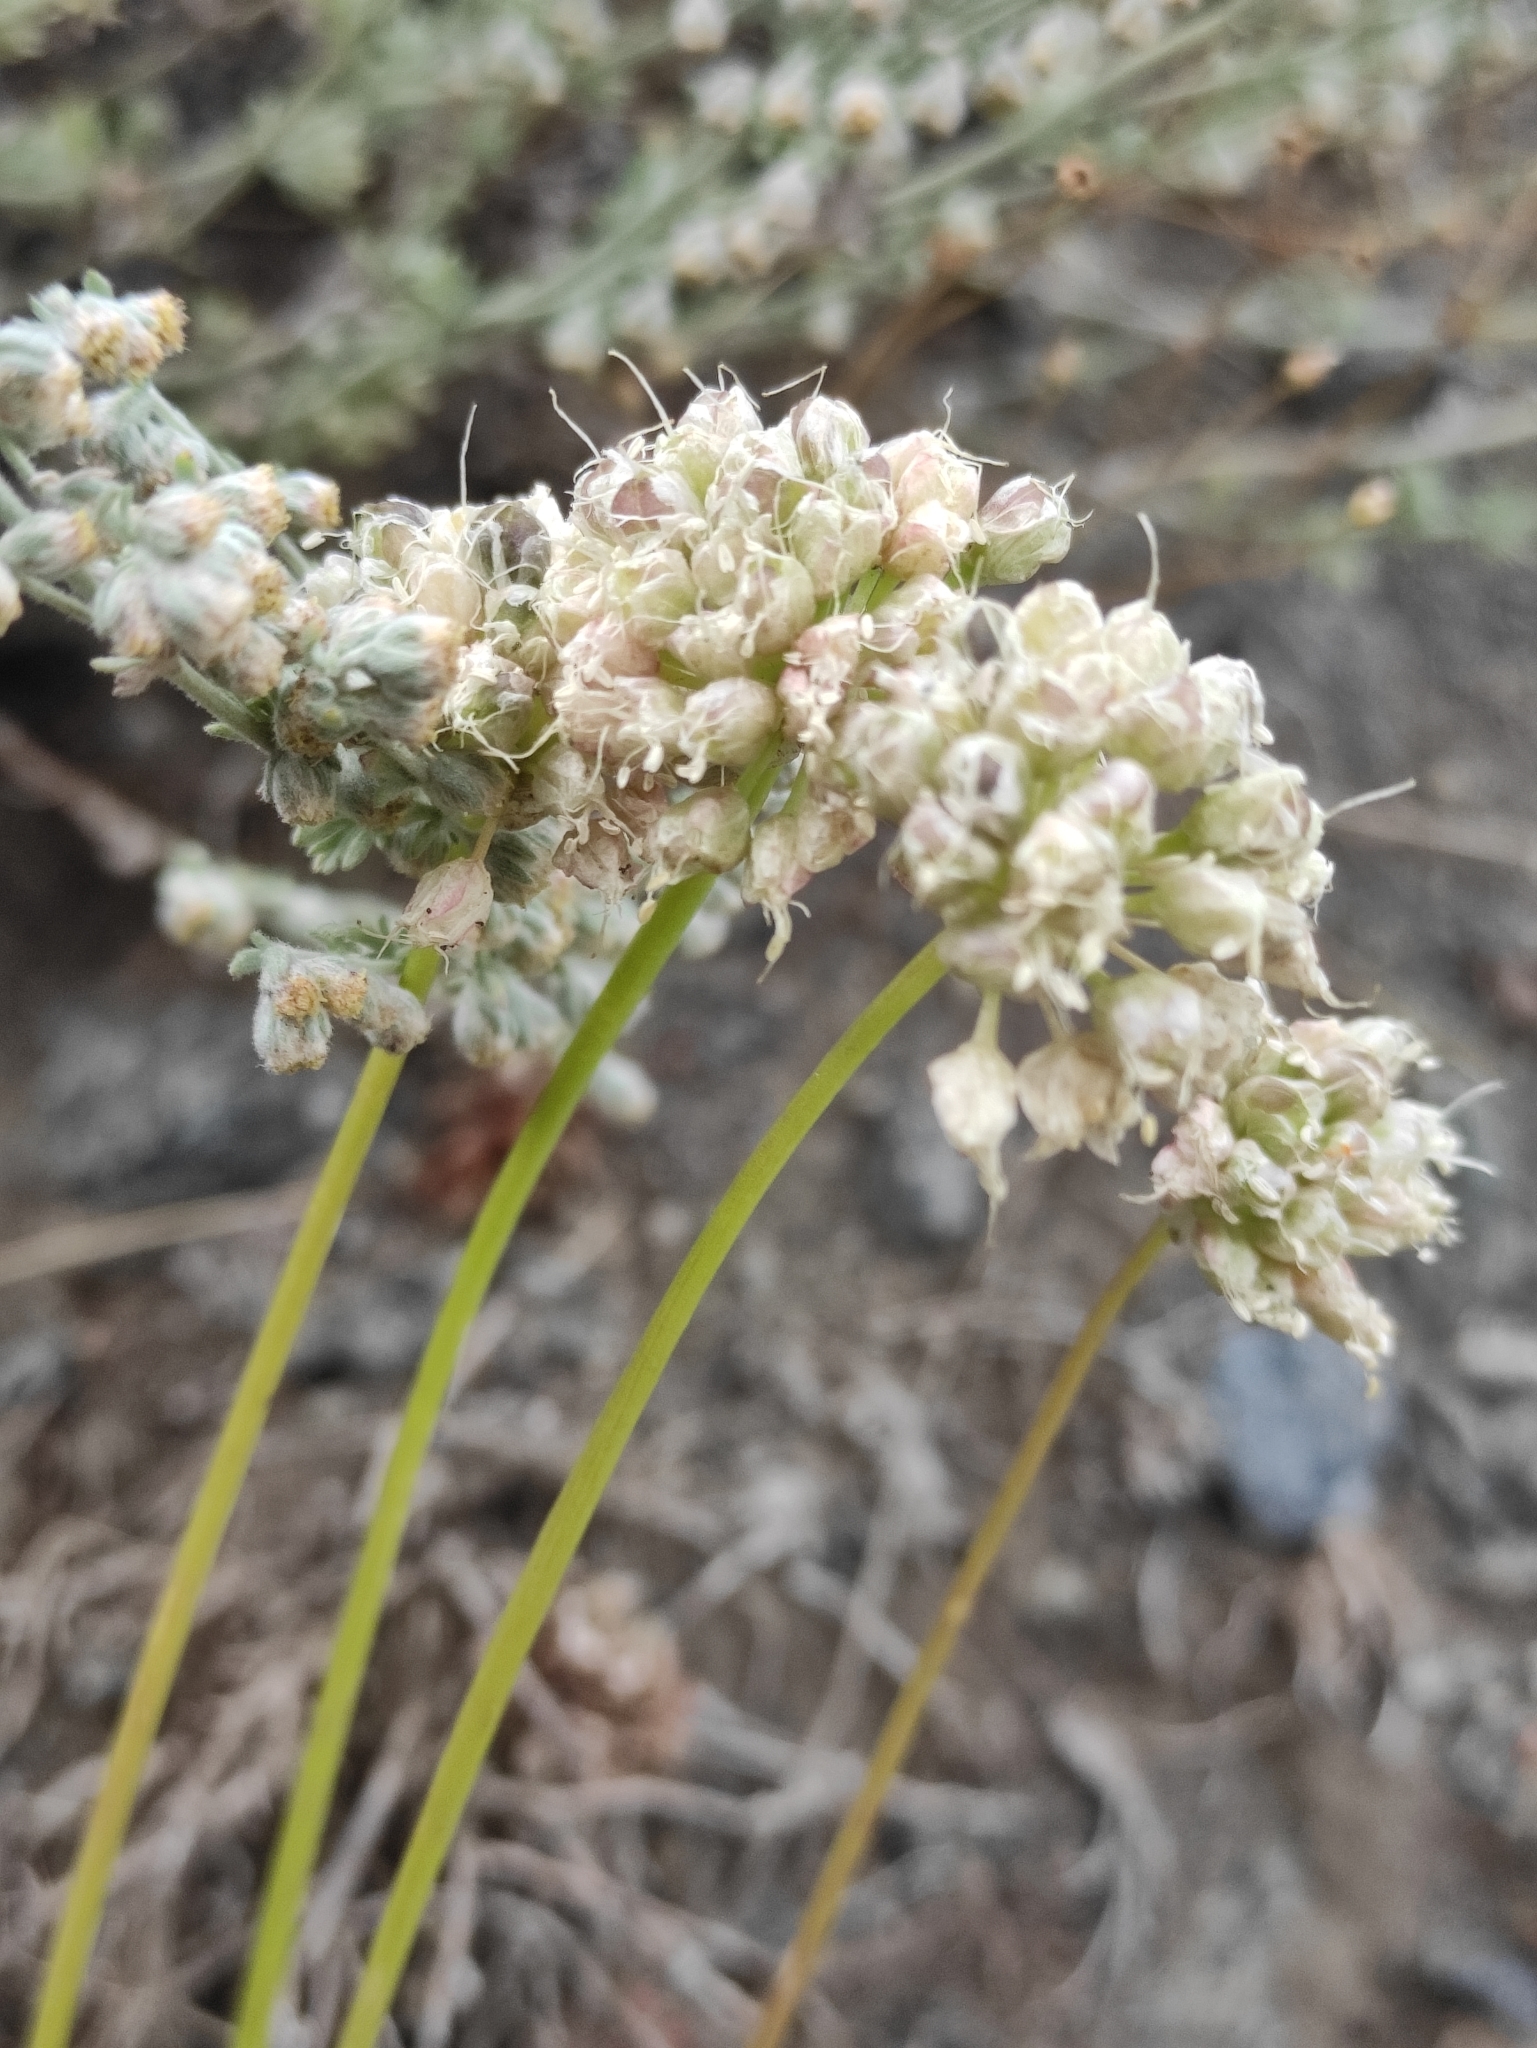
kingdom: Plantae
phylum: Tracheophyta
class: Liliopsida
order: Asparagales
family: Amaryllidaceae
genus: Allium
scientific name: Allium stellerianum
